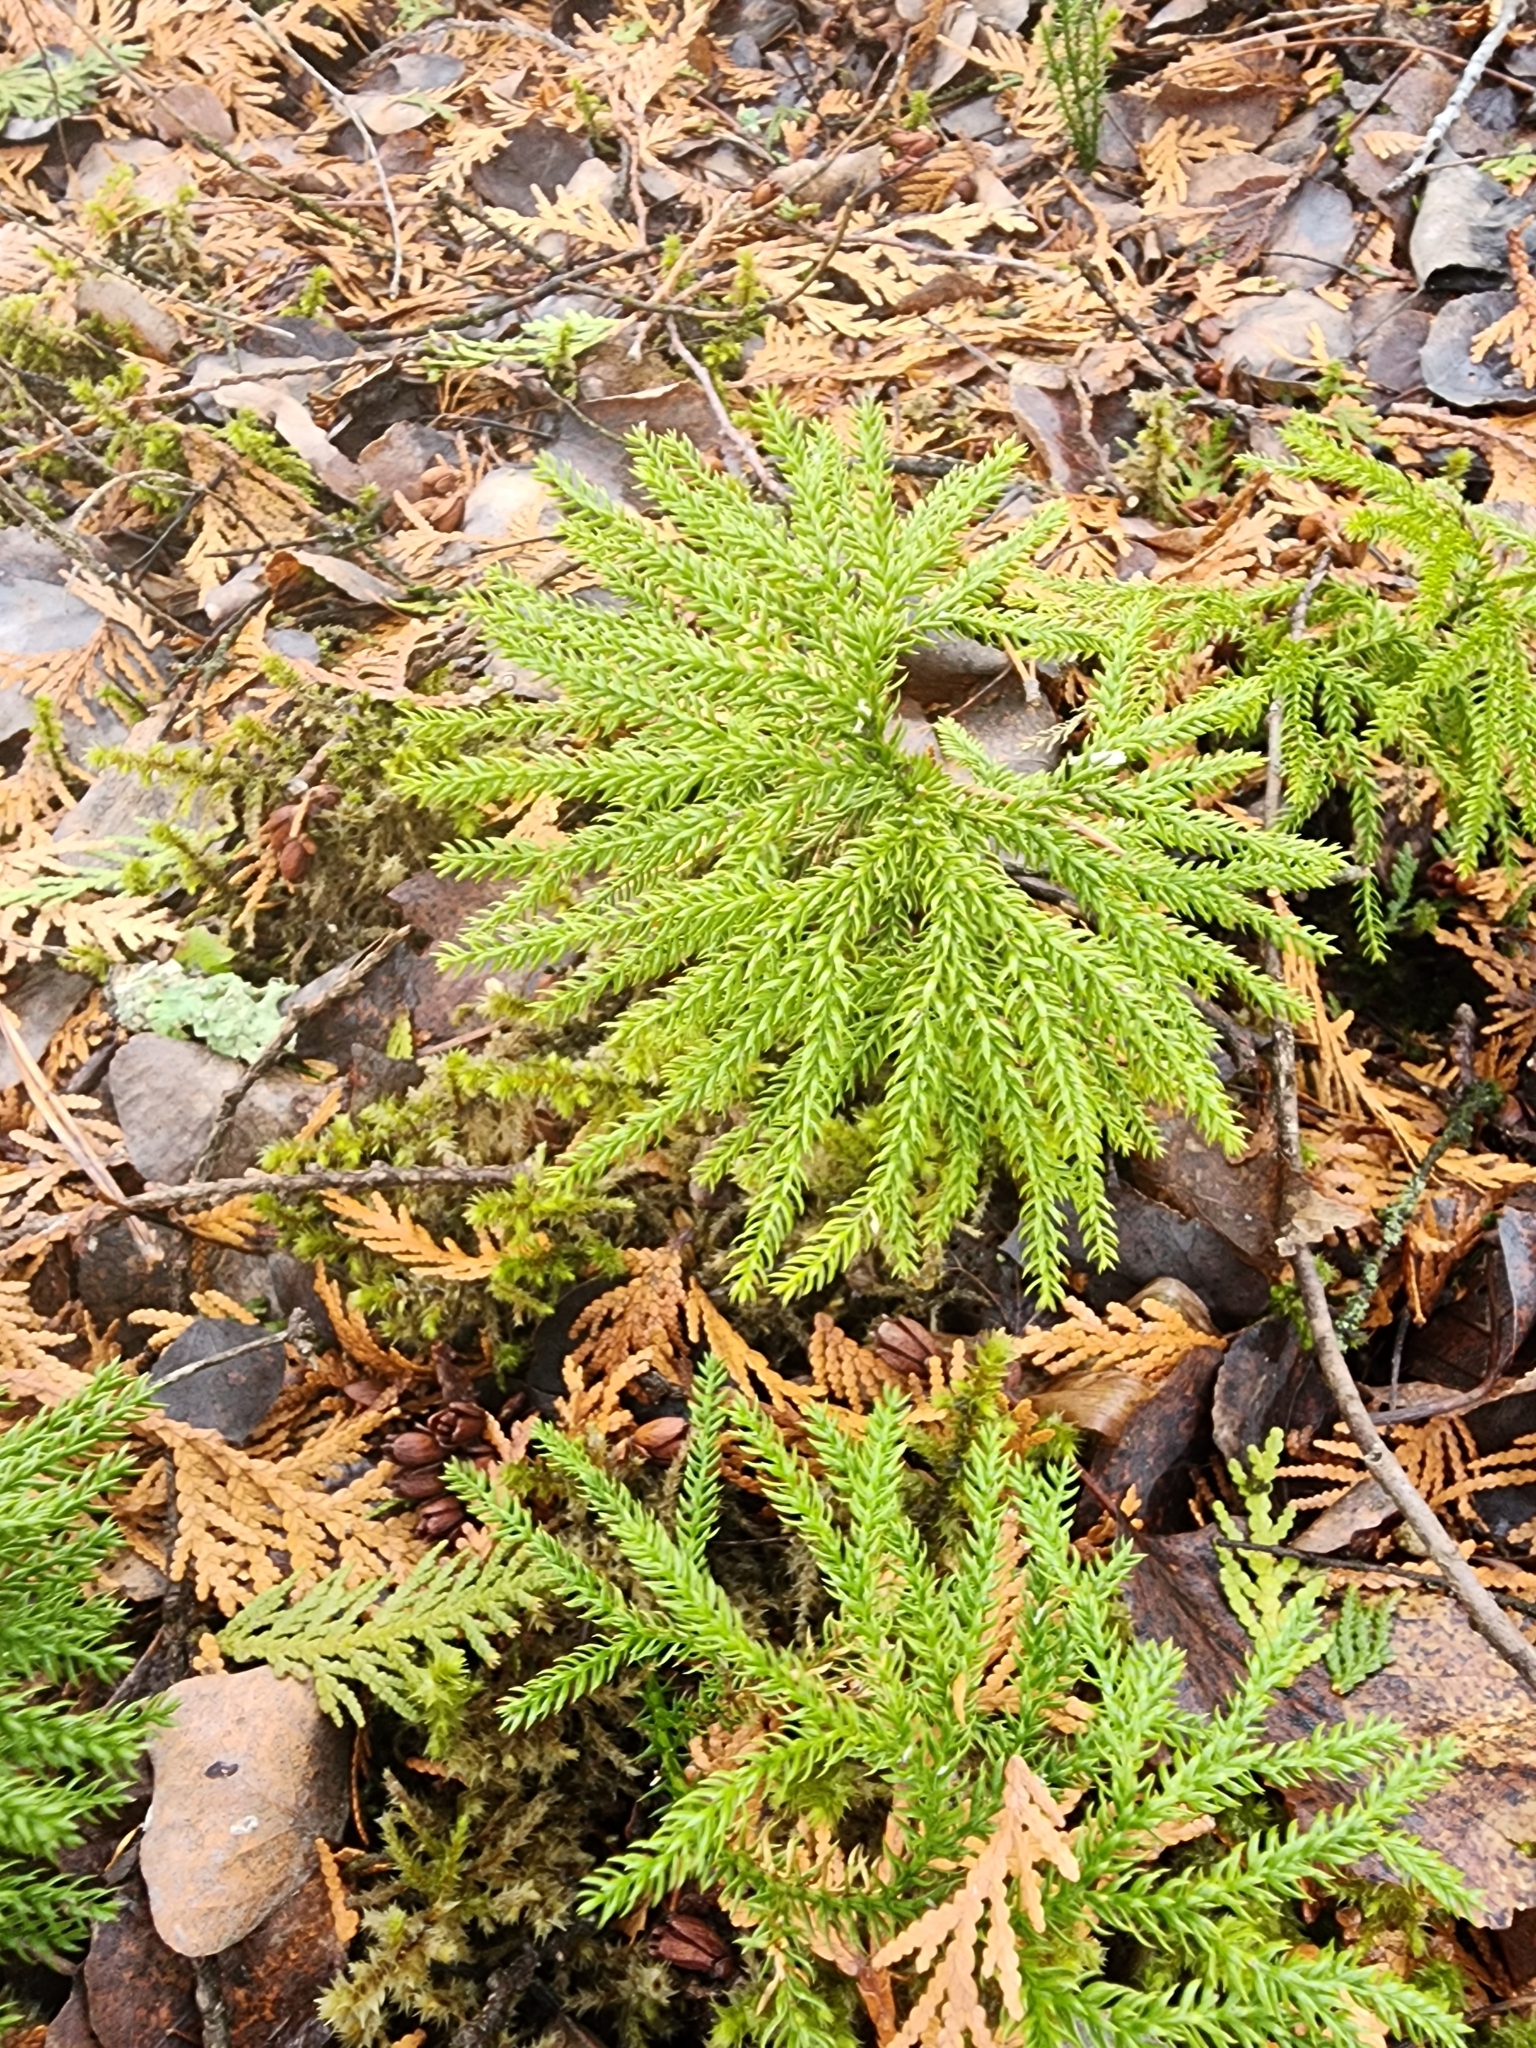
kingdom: Plantae
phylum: Tracheophyta
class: Lycopodiopsida
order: Lycopodiales
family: Lycopodiaceae
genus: Dendrolycopodium
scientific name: Dendrolycopodium dendroideum
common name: Northern tree-clubmoss
